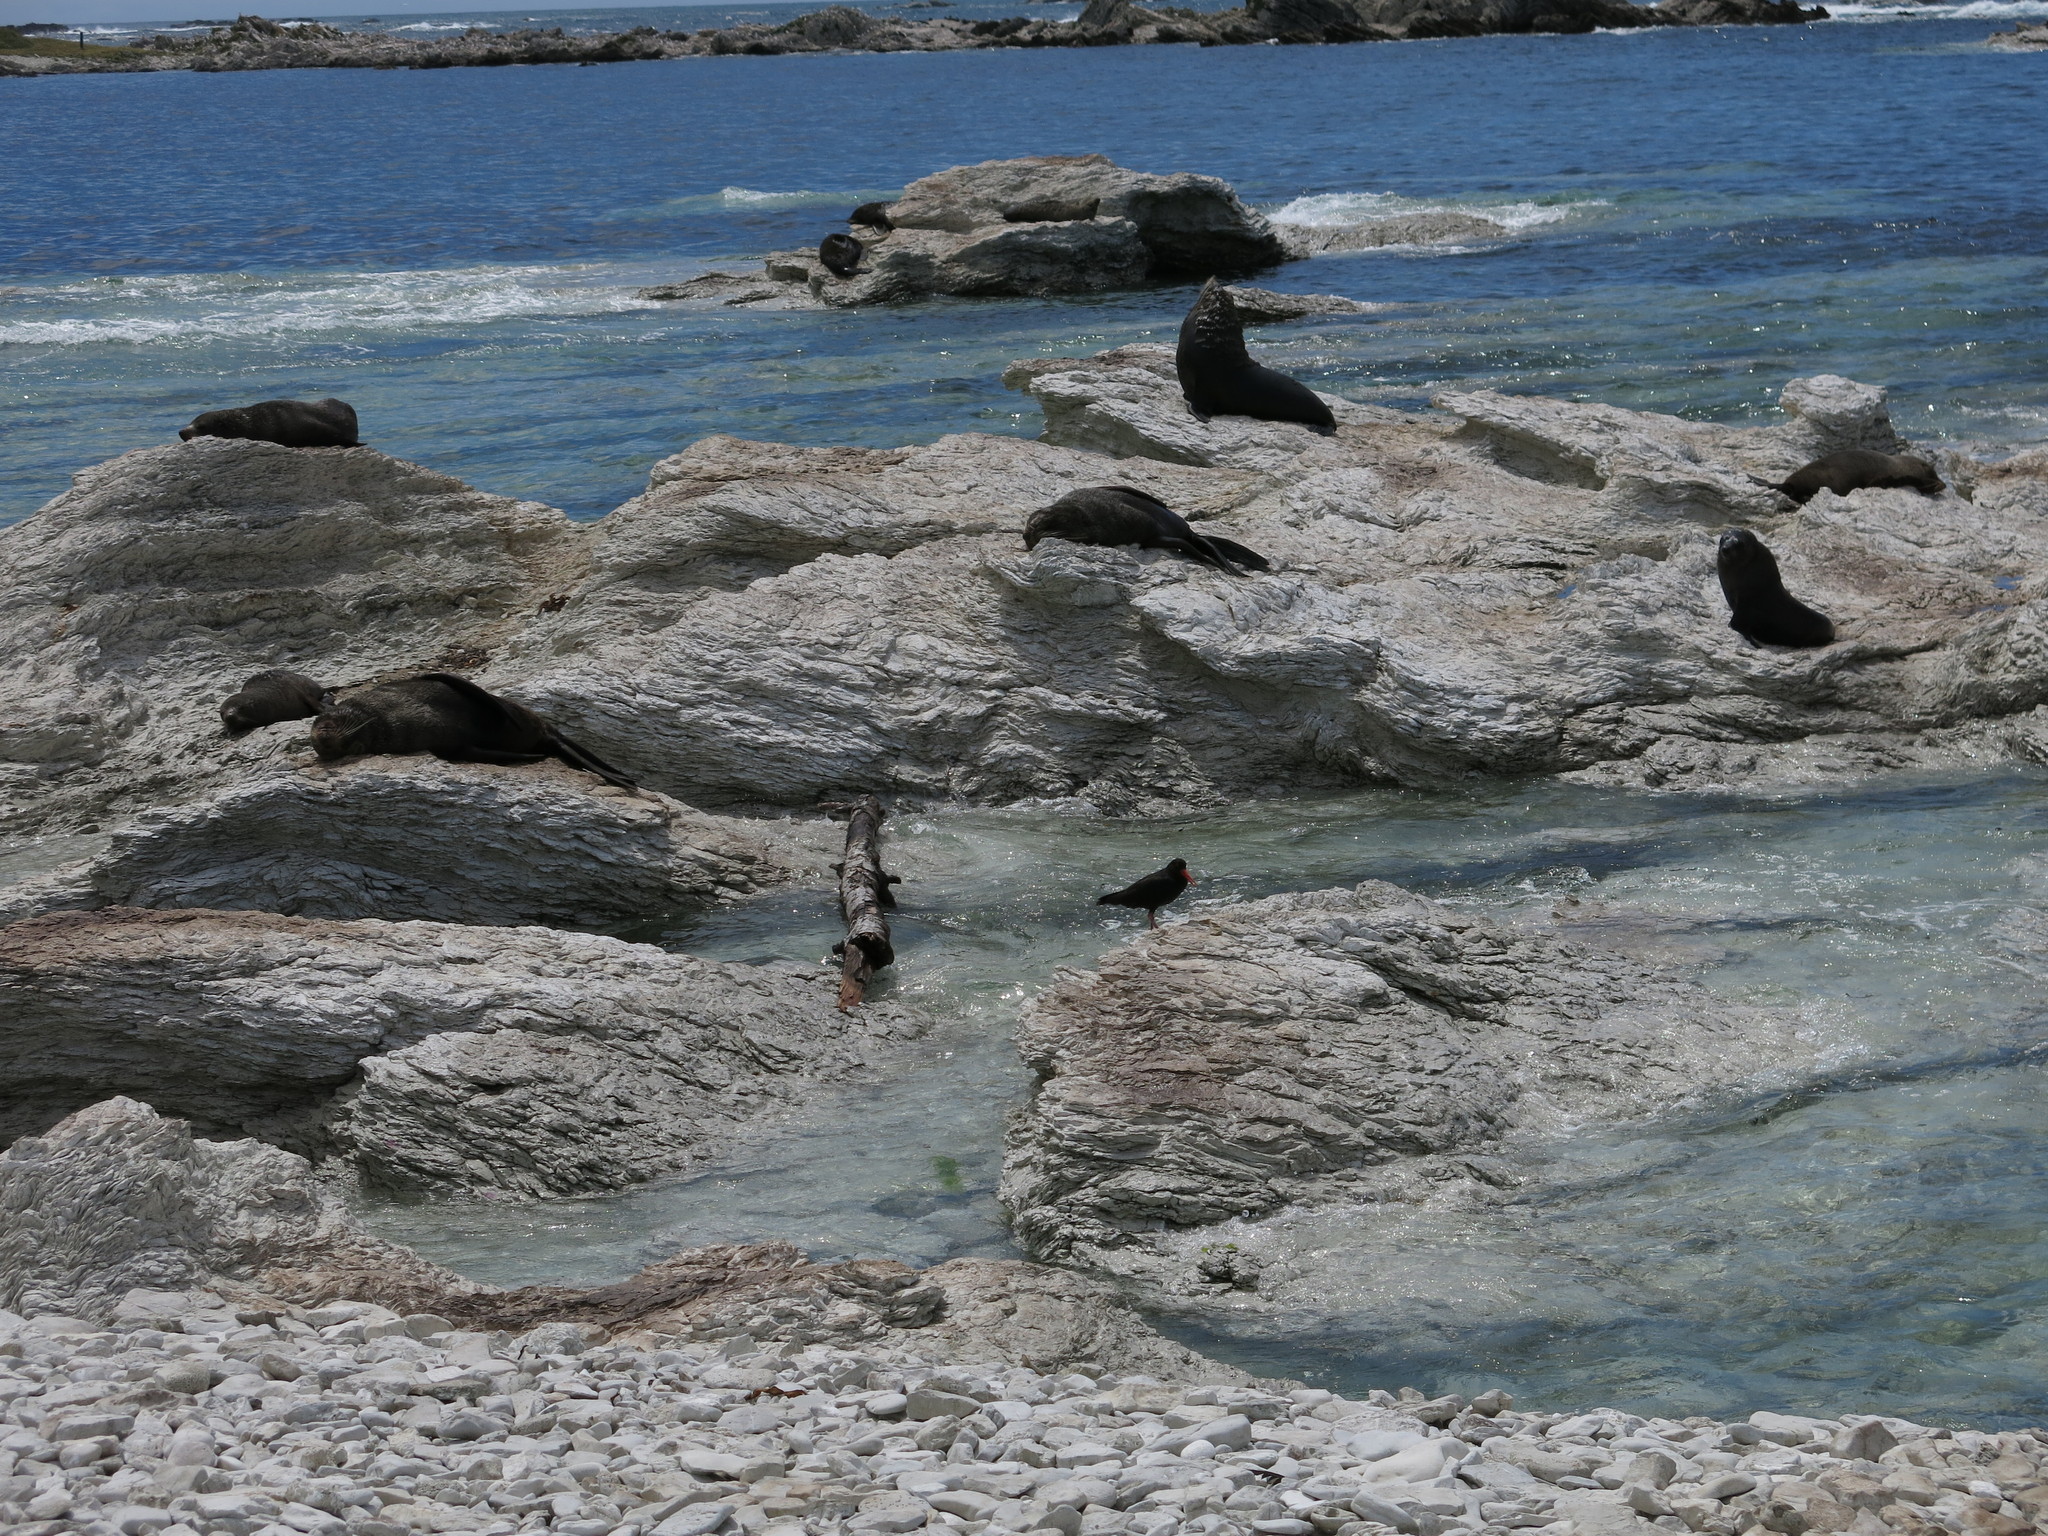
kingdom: Animalia
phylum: Chordata
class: Mammalia
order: Carnivora
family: Otariidae
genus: Arctocephalus
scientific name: Arctocephalus forsteri
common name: New zealand fur seal
